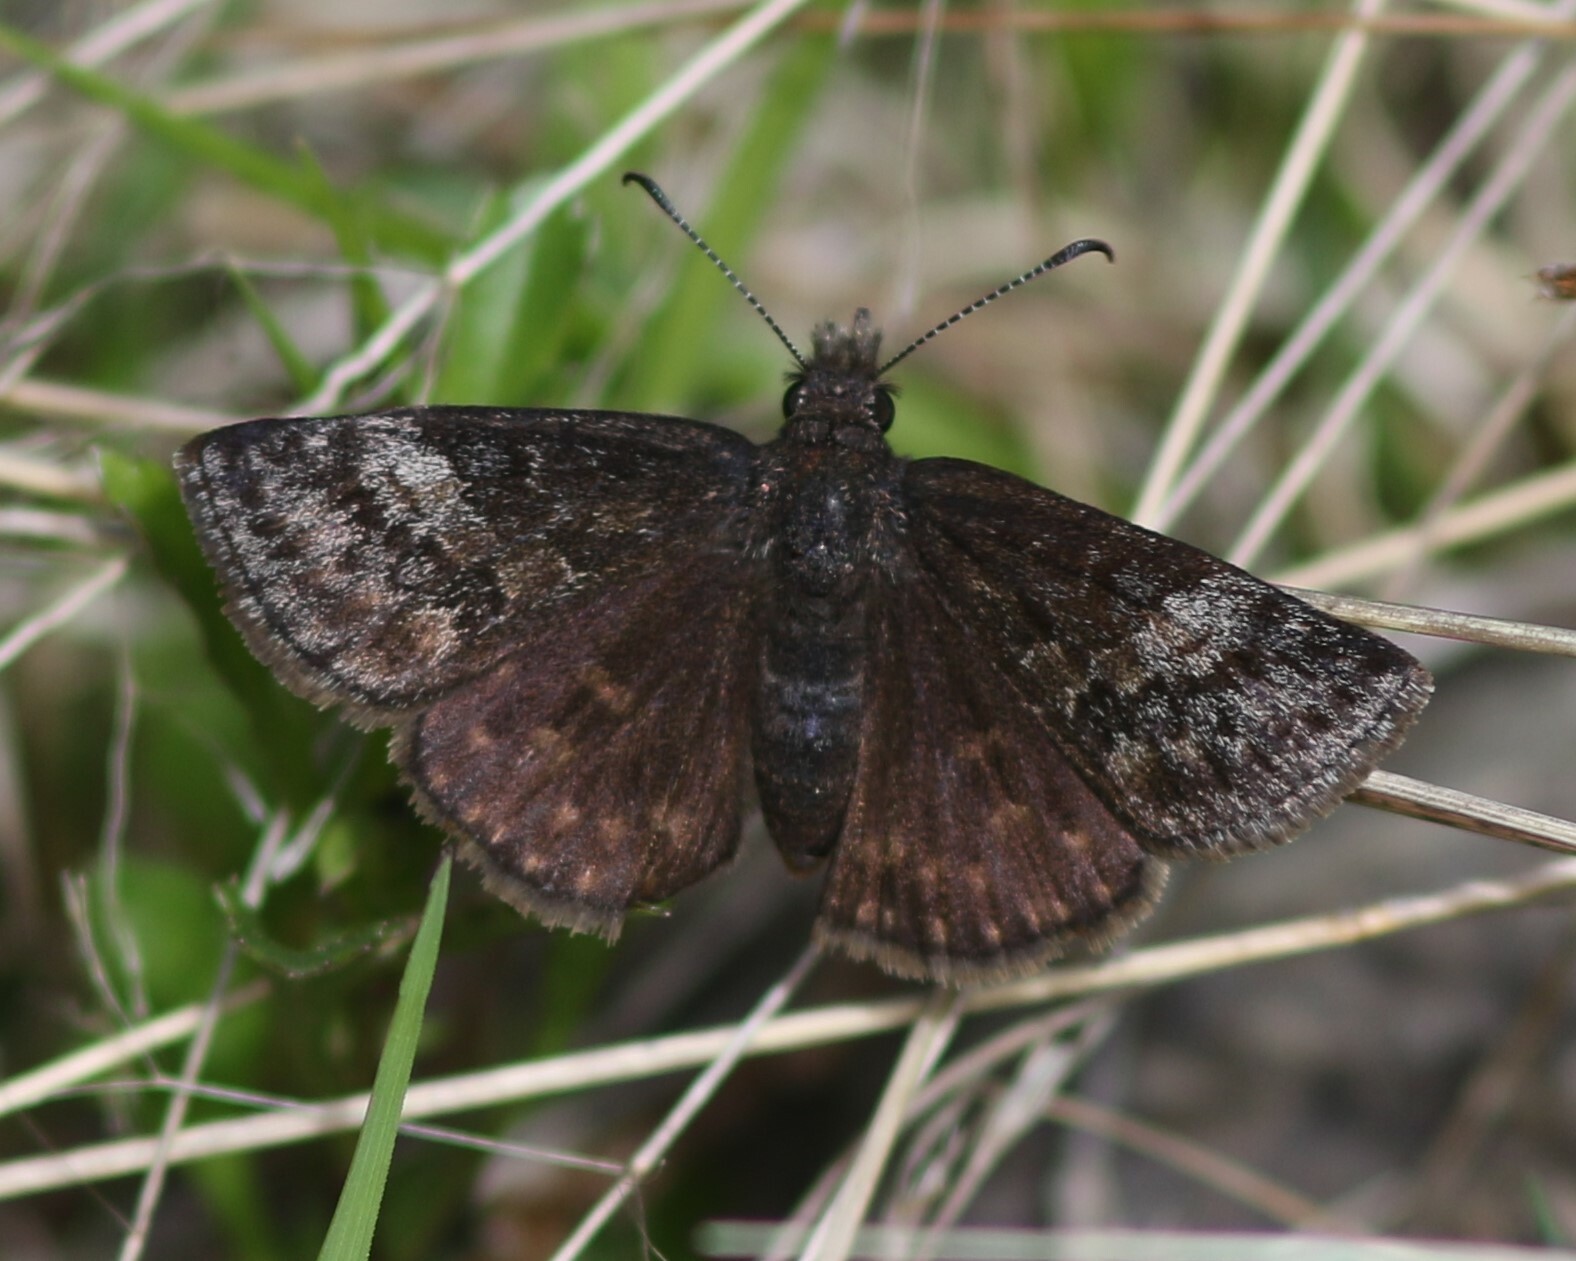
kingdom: Animalia
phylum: Arthropoda
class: Insecta
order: Lepidoptera
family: Hesperiidae
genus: Erynnis
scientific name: Erynnis icelus
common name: Dreamy duskywing
